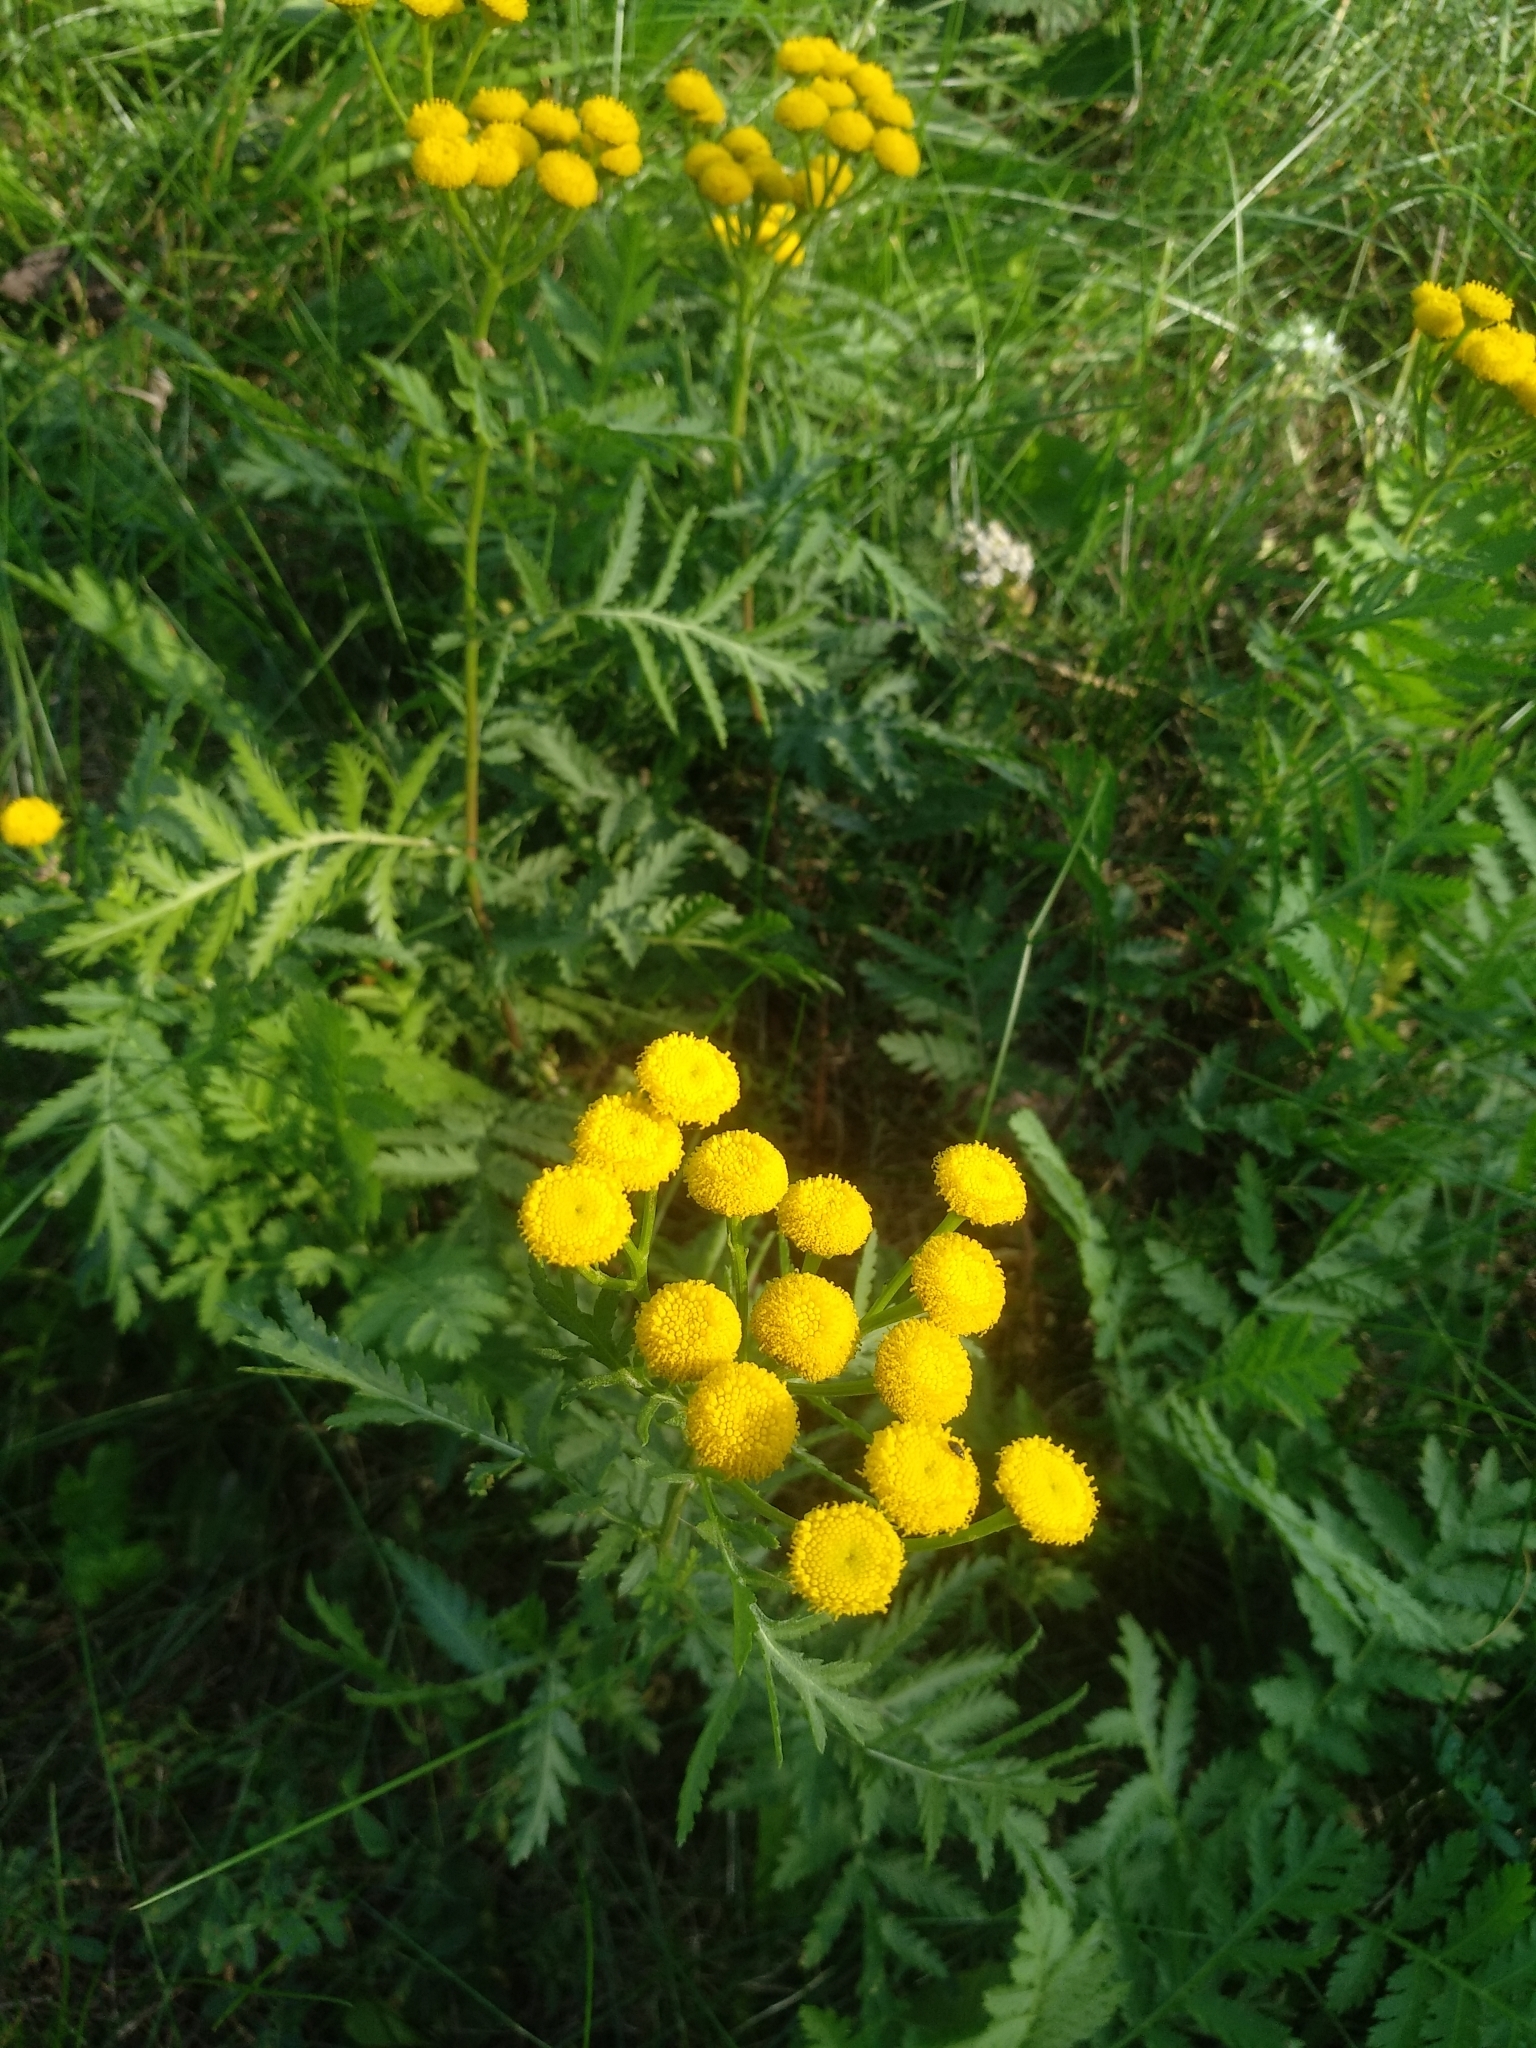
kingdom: Plantae
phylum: Tracheophyta
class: Magnoliopsida
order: Asterales
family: Asteraceae
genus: Tanacetum
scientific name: Tanacetum vulgare
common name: Common tansy
